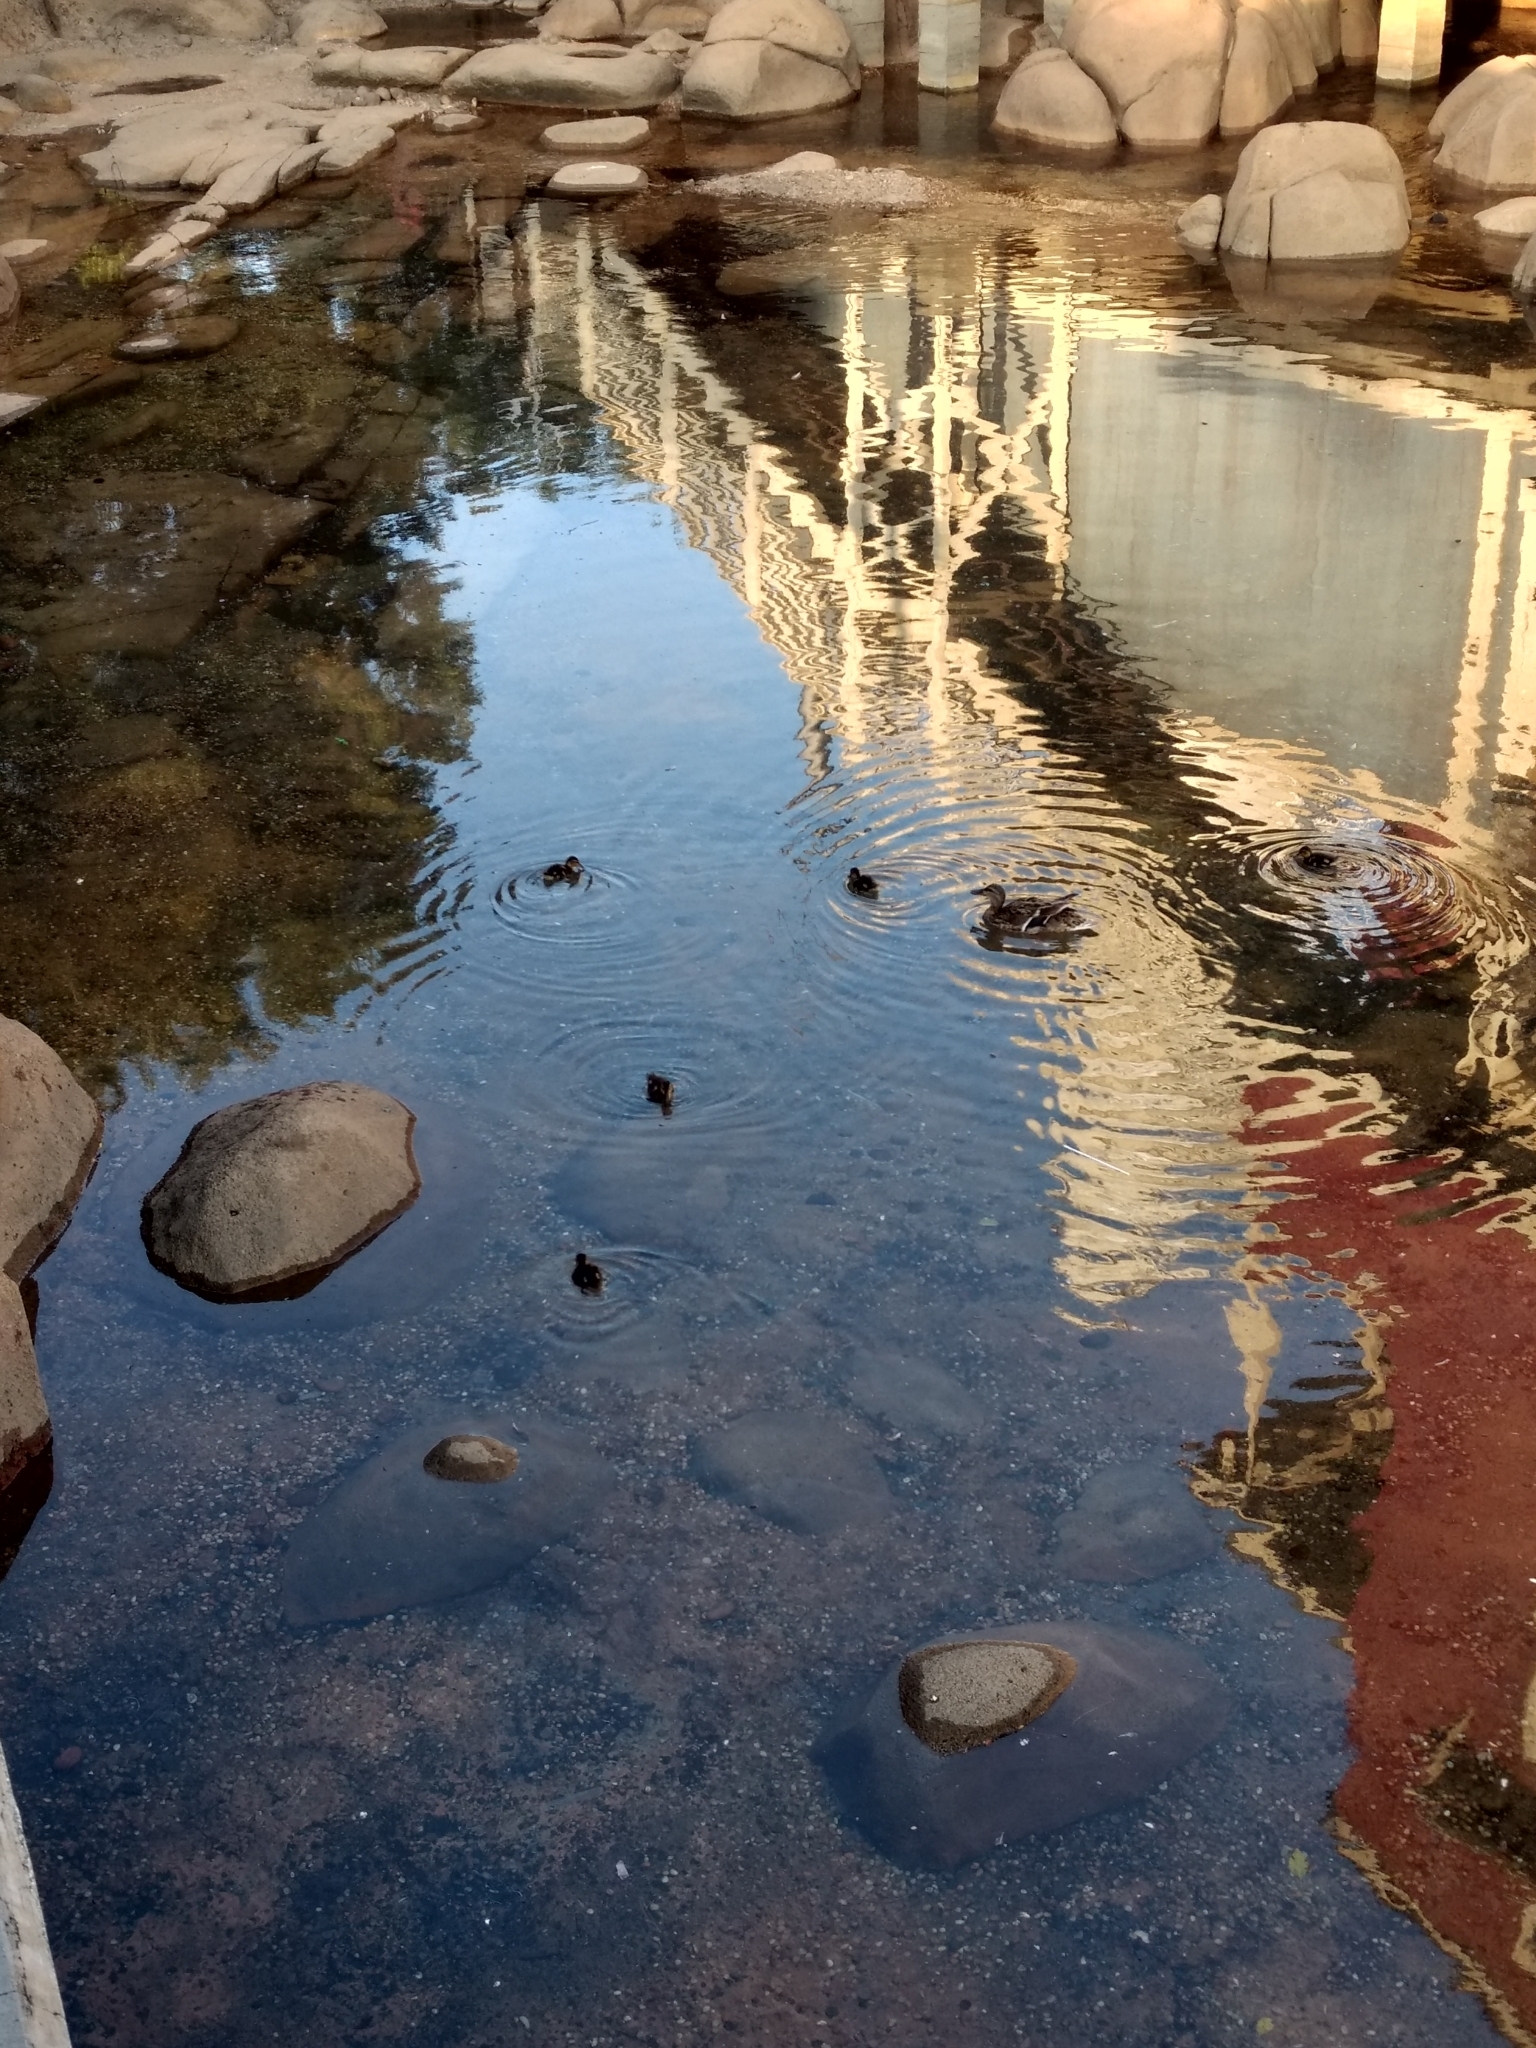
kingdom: Animalia
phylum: Chordata
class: Aves
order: Anseriformes
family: Anatidae
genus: Anas
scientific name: Anas platyrhynchos
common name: Mallard
